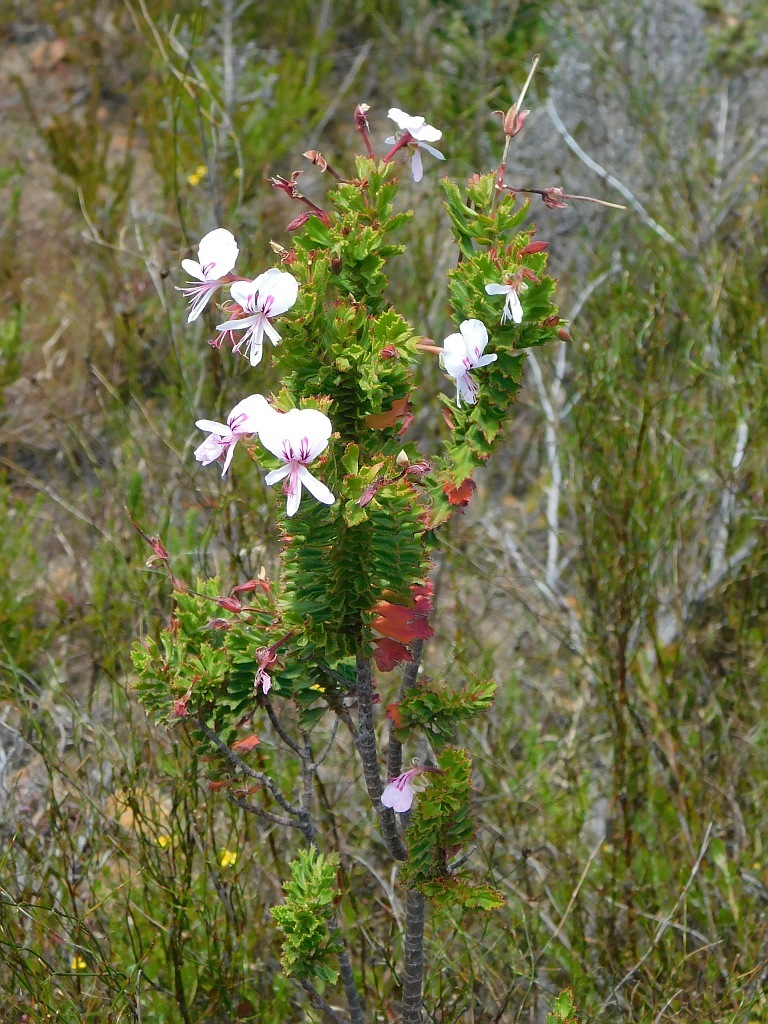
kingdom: Plantae
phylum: Tracheophyta
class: Magnoliopsida
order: Geraniales
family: Geraniaceae
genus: Pelargonium
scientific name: Pelargonium hermaniifolium
